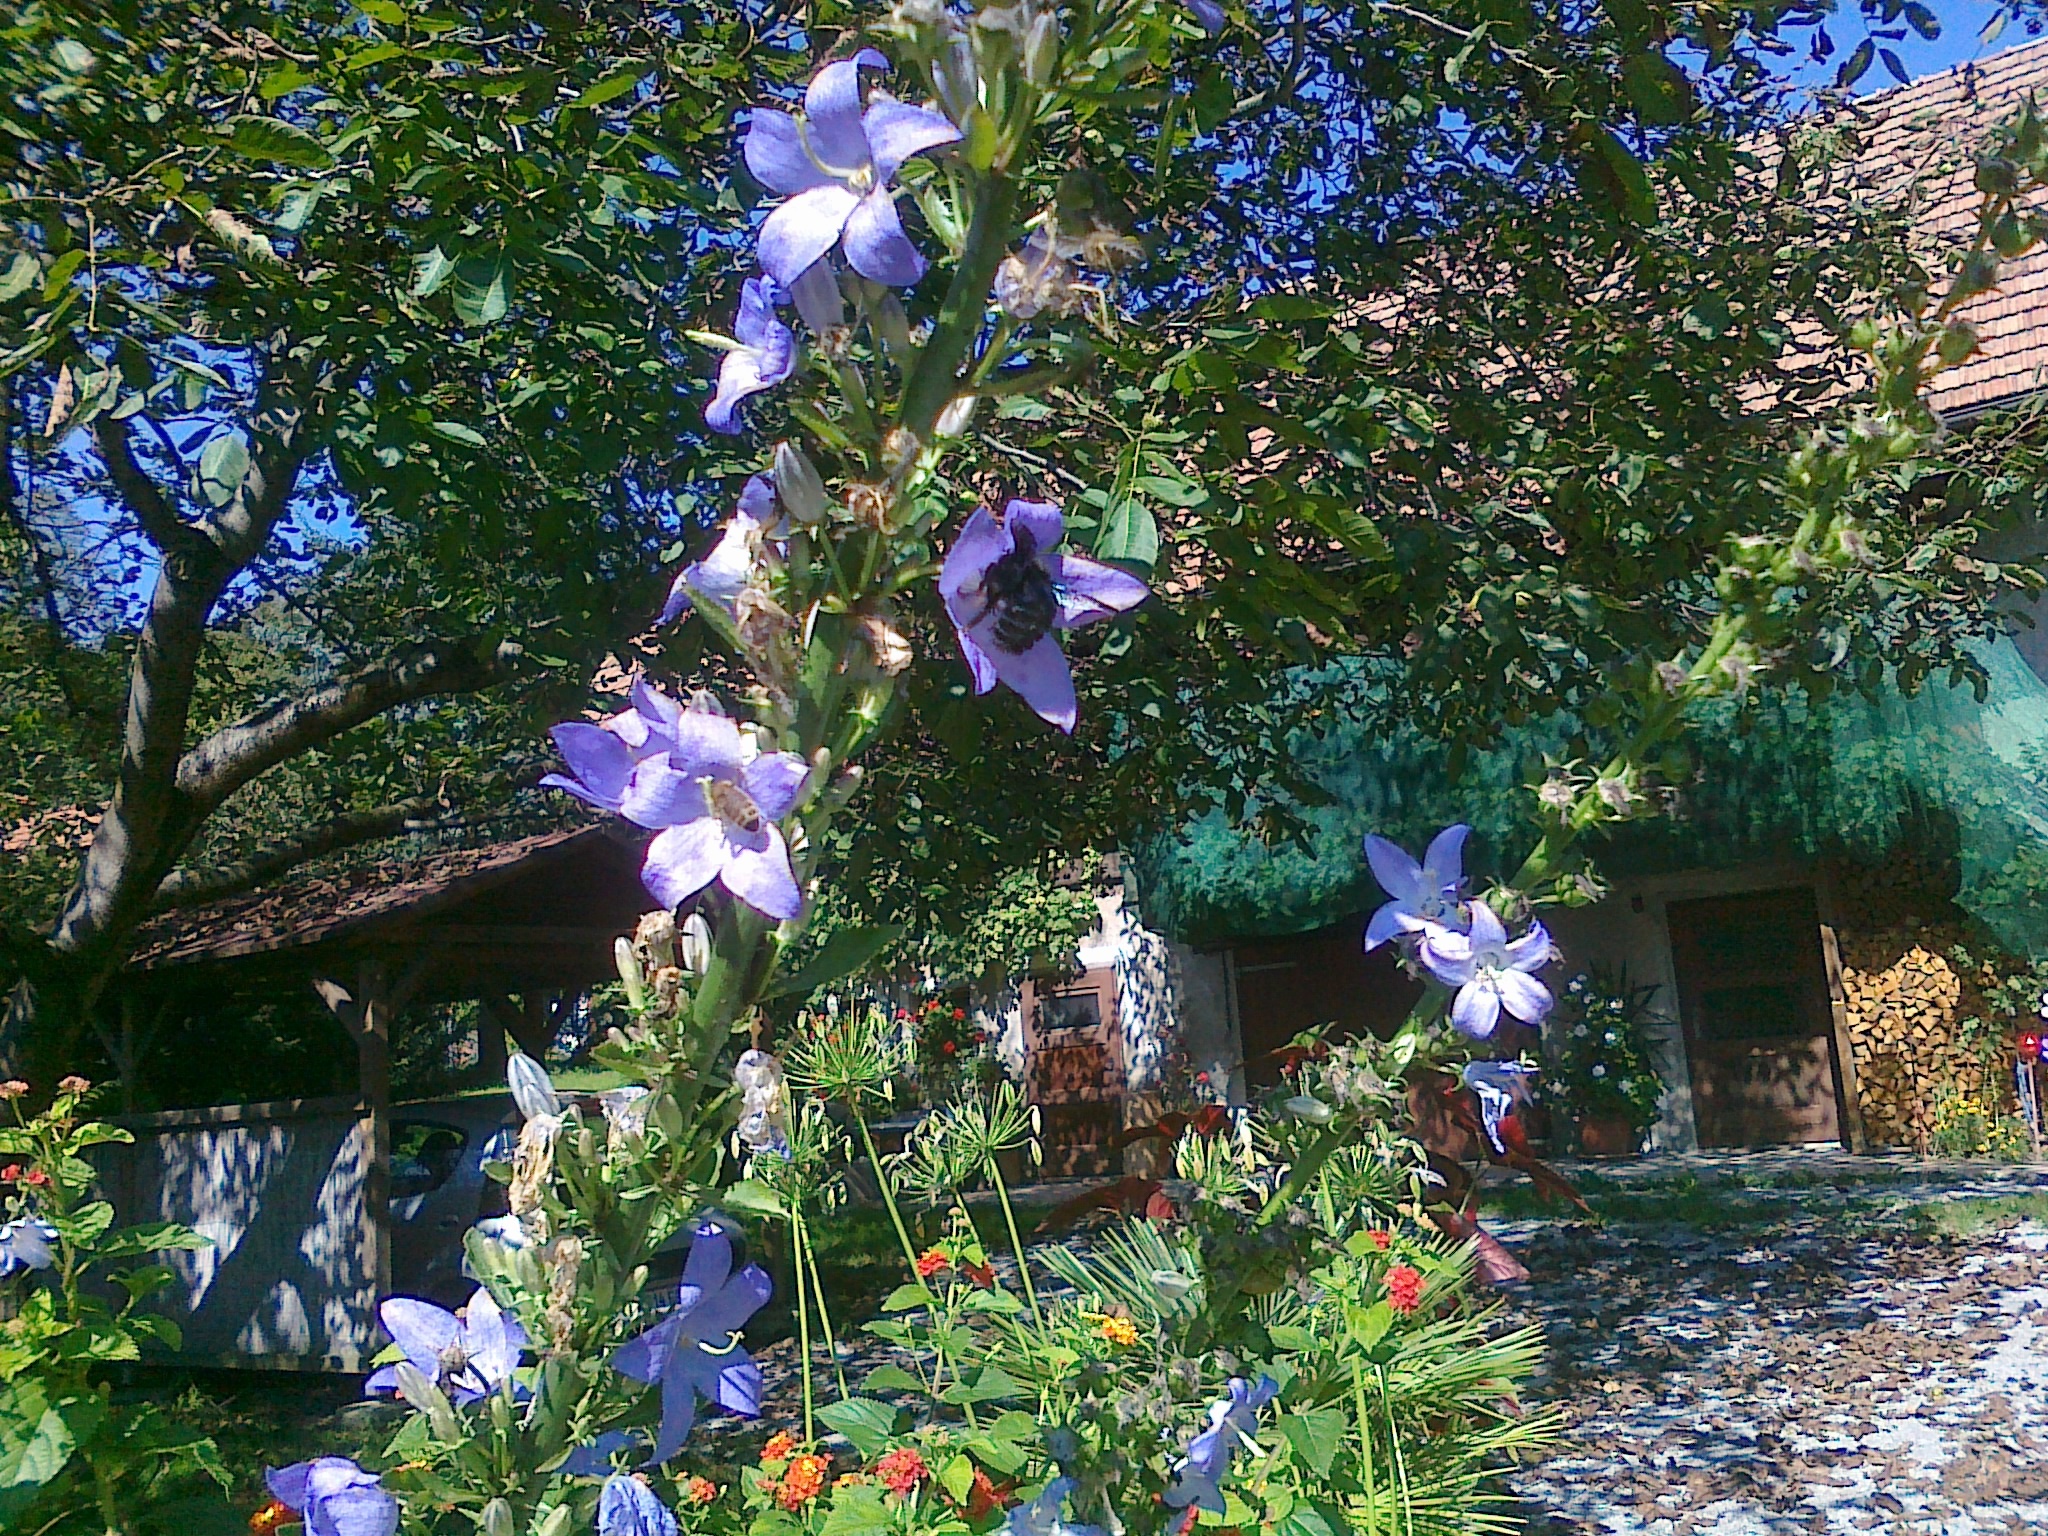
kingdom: Animalia
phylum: Arthropoda
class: Insecta
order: Hymenoptera
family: Apidae
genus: Xylocopa
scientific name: Xylocopa
